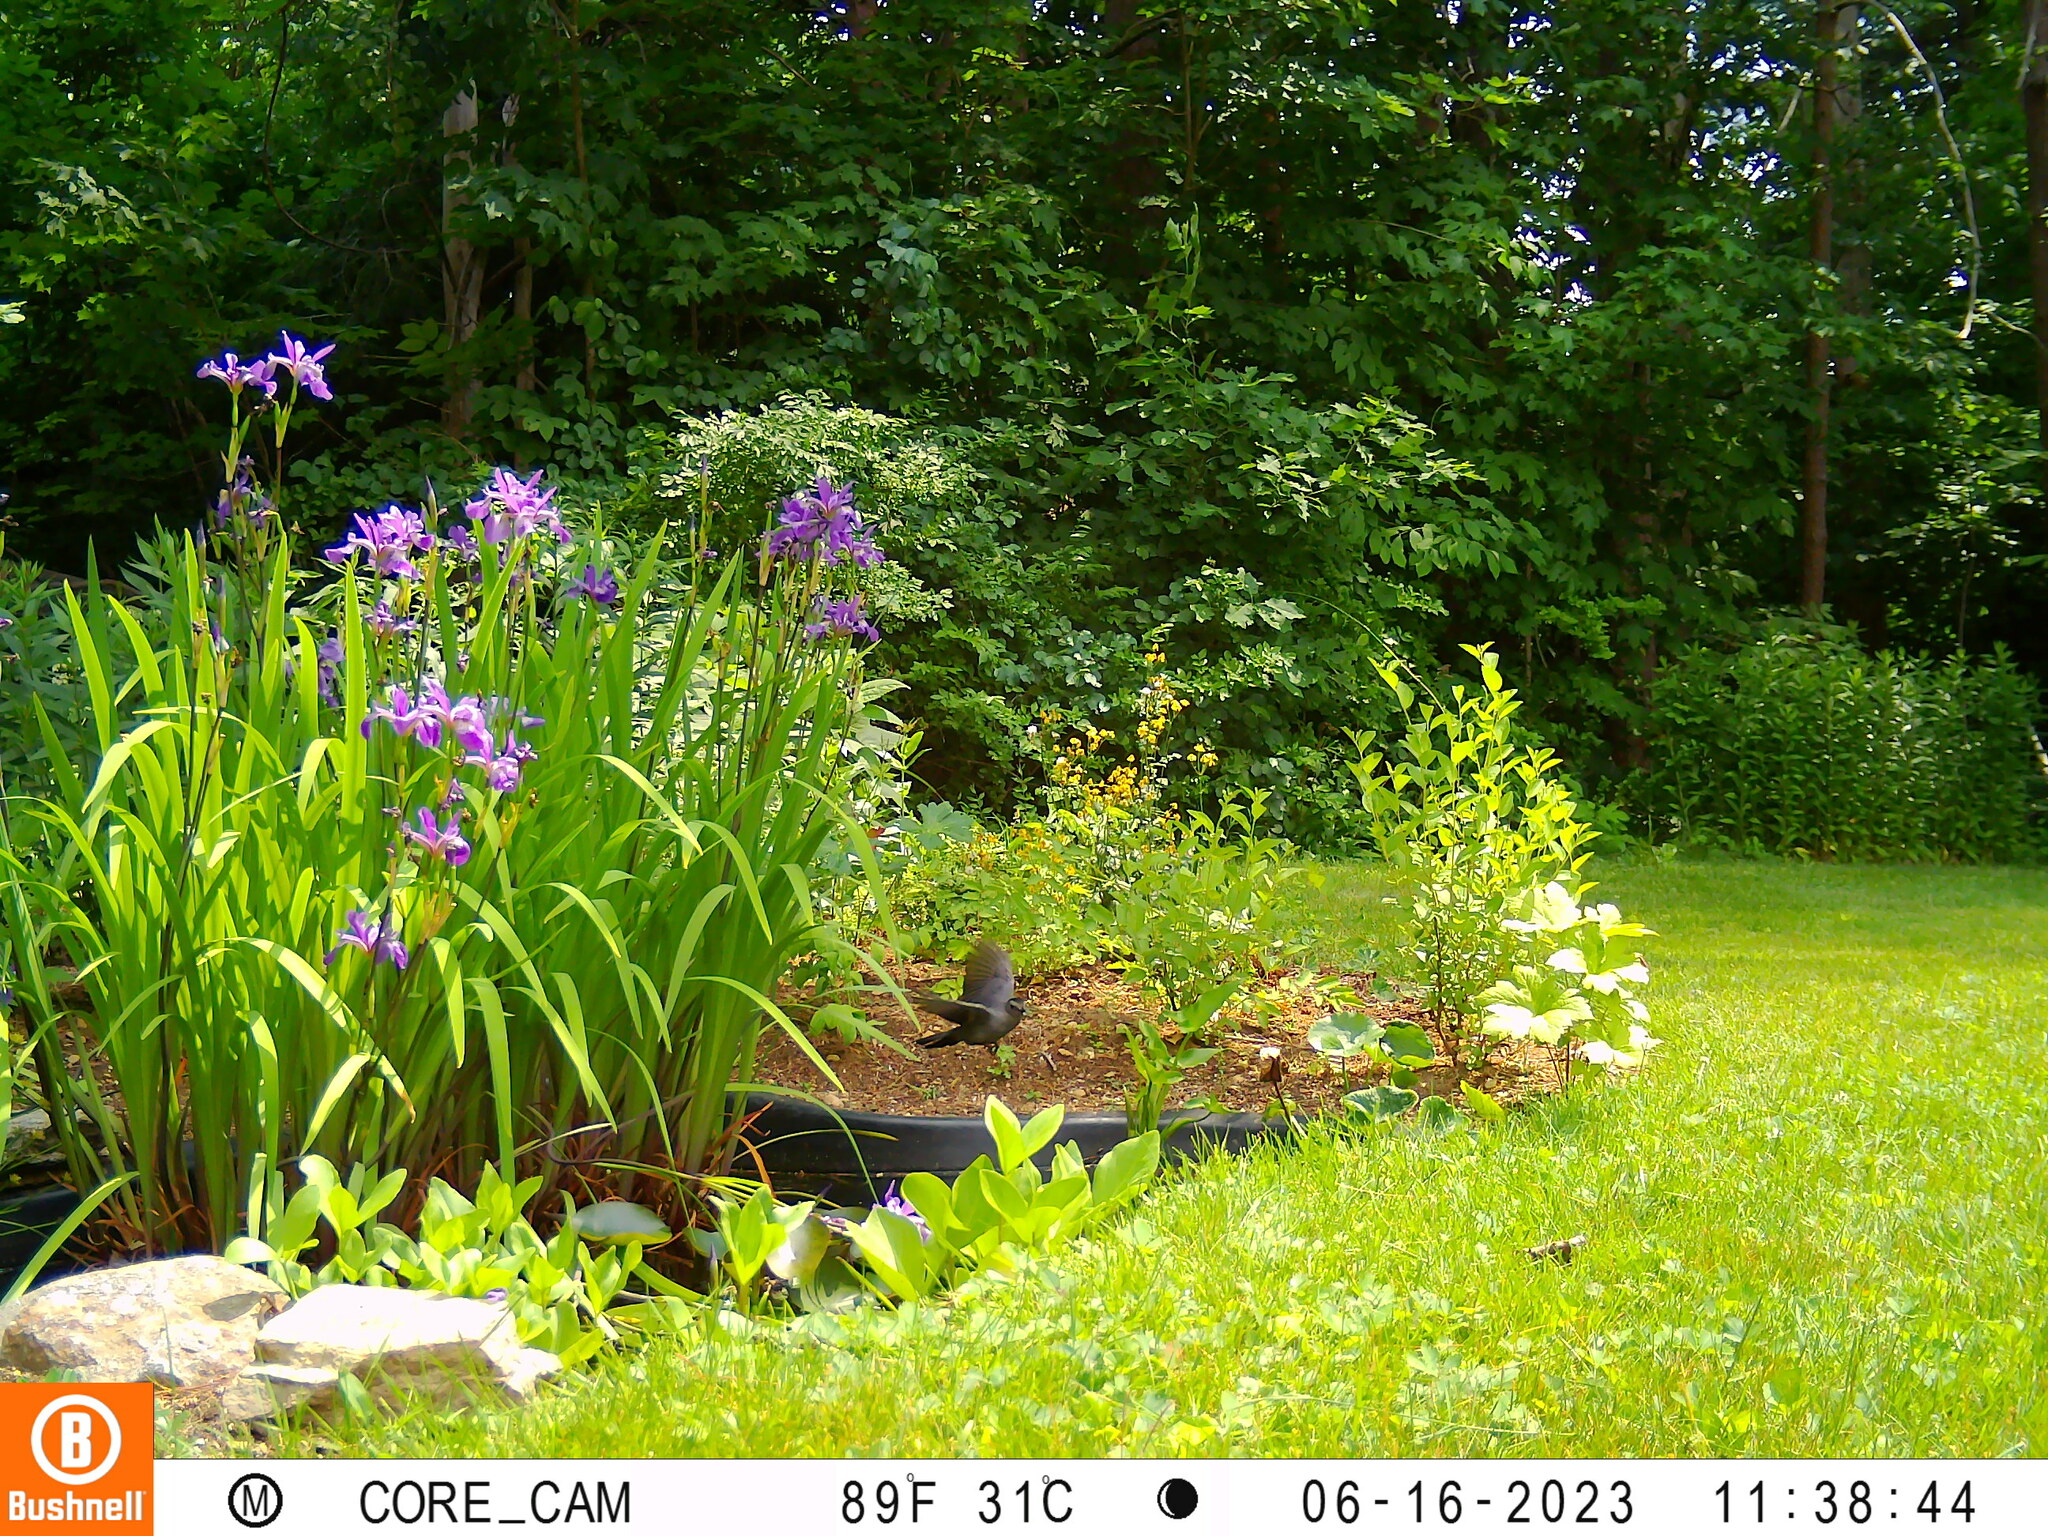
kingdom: Animalia
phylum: Chordata
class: Aves
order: Passeriformes
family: Mimidae
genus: Dumetella
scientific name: Dumetella carolinensis
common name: Gray catbird
